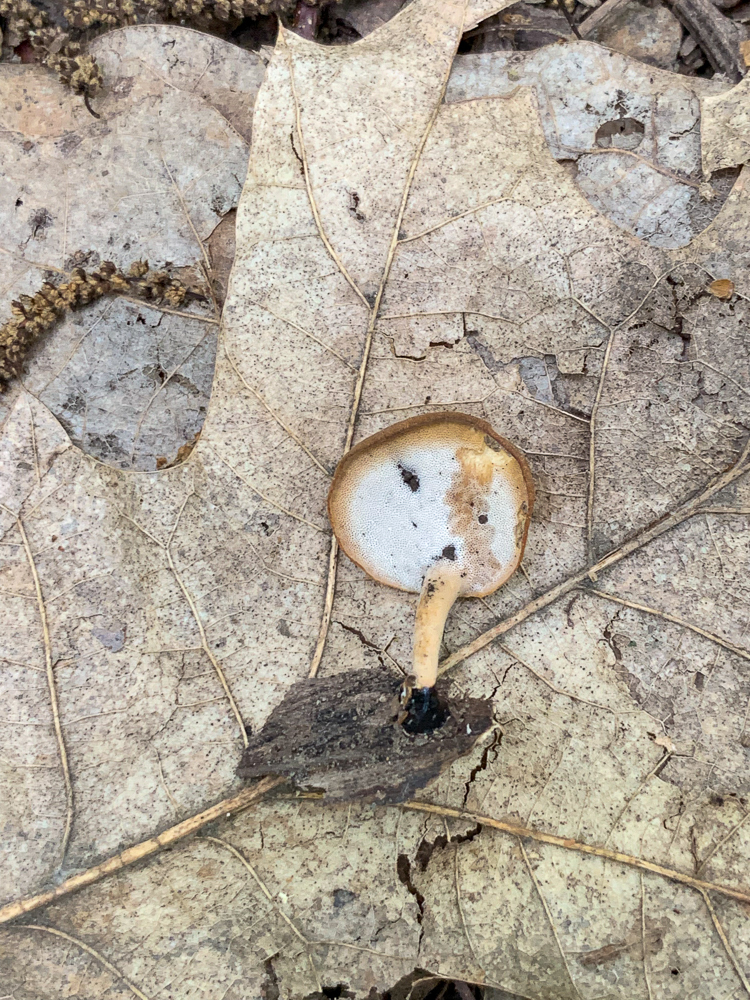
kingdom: Fungi
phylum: Basidiomycota
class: Agaricomycetes
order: Polyporales
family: Polyporaceae
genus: Cerioporus
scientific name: Cerioporus varius
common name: Elegant polypore
